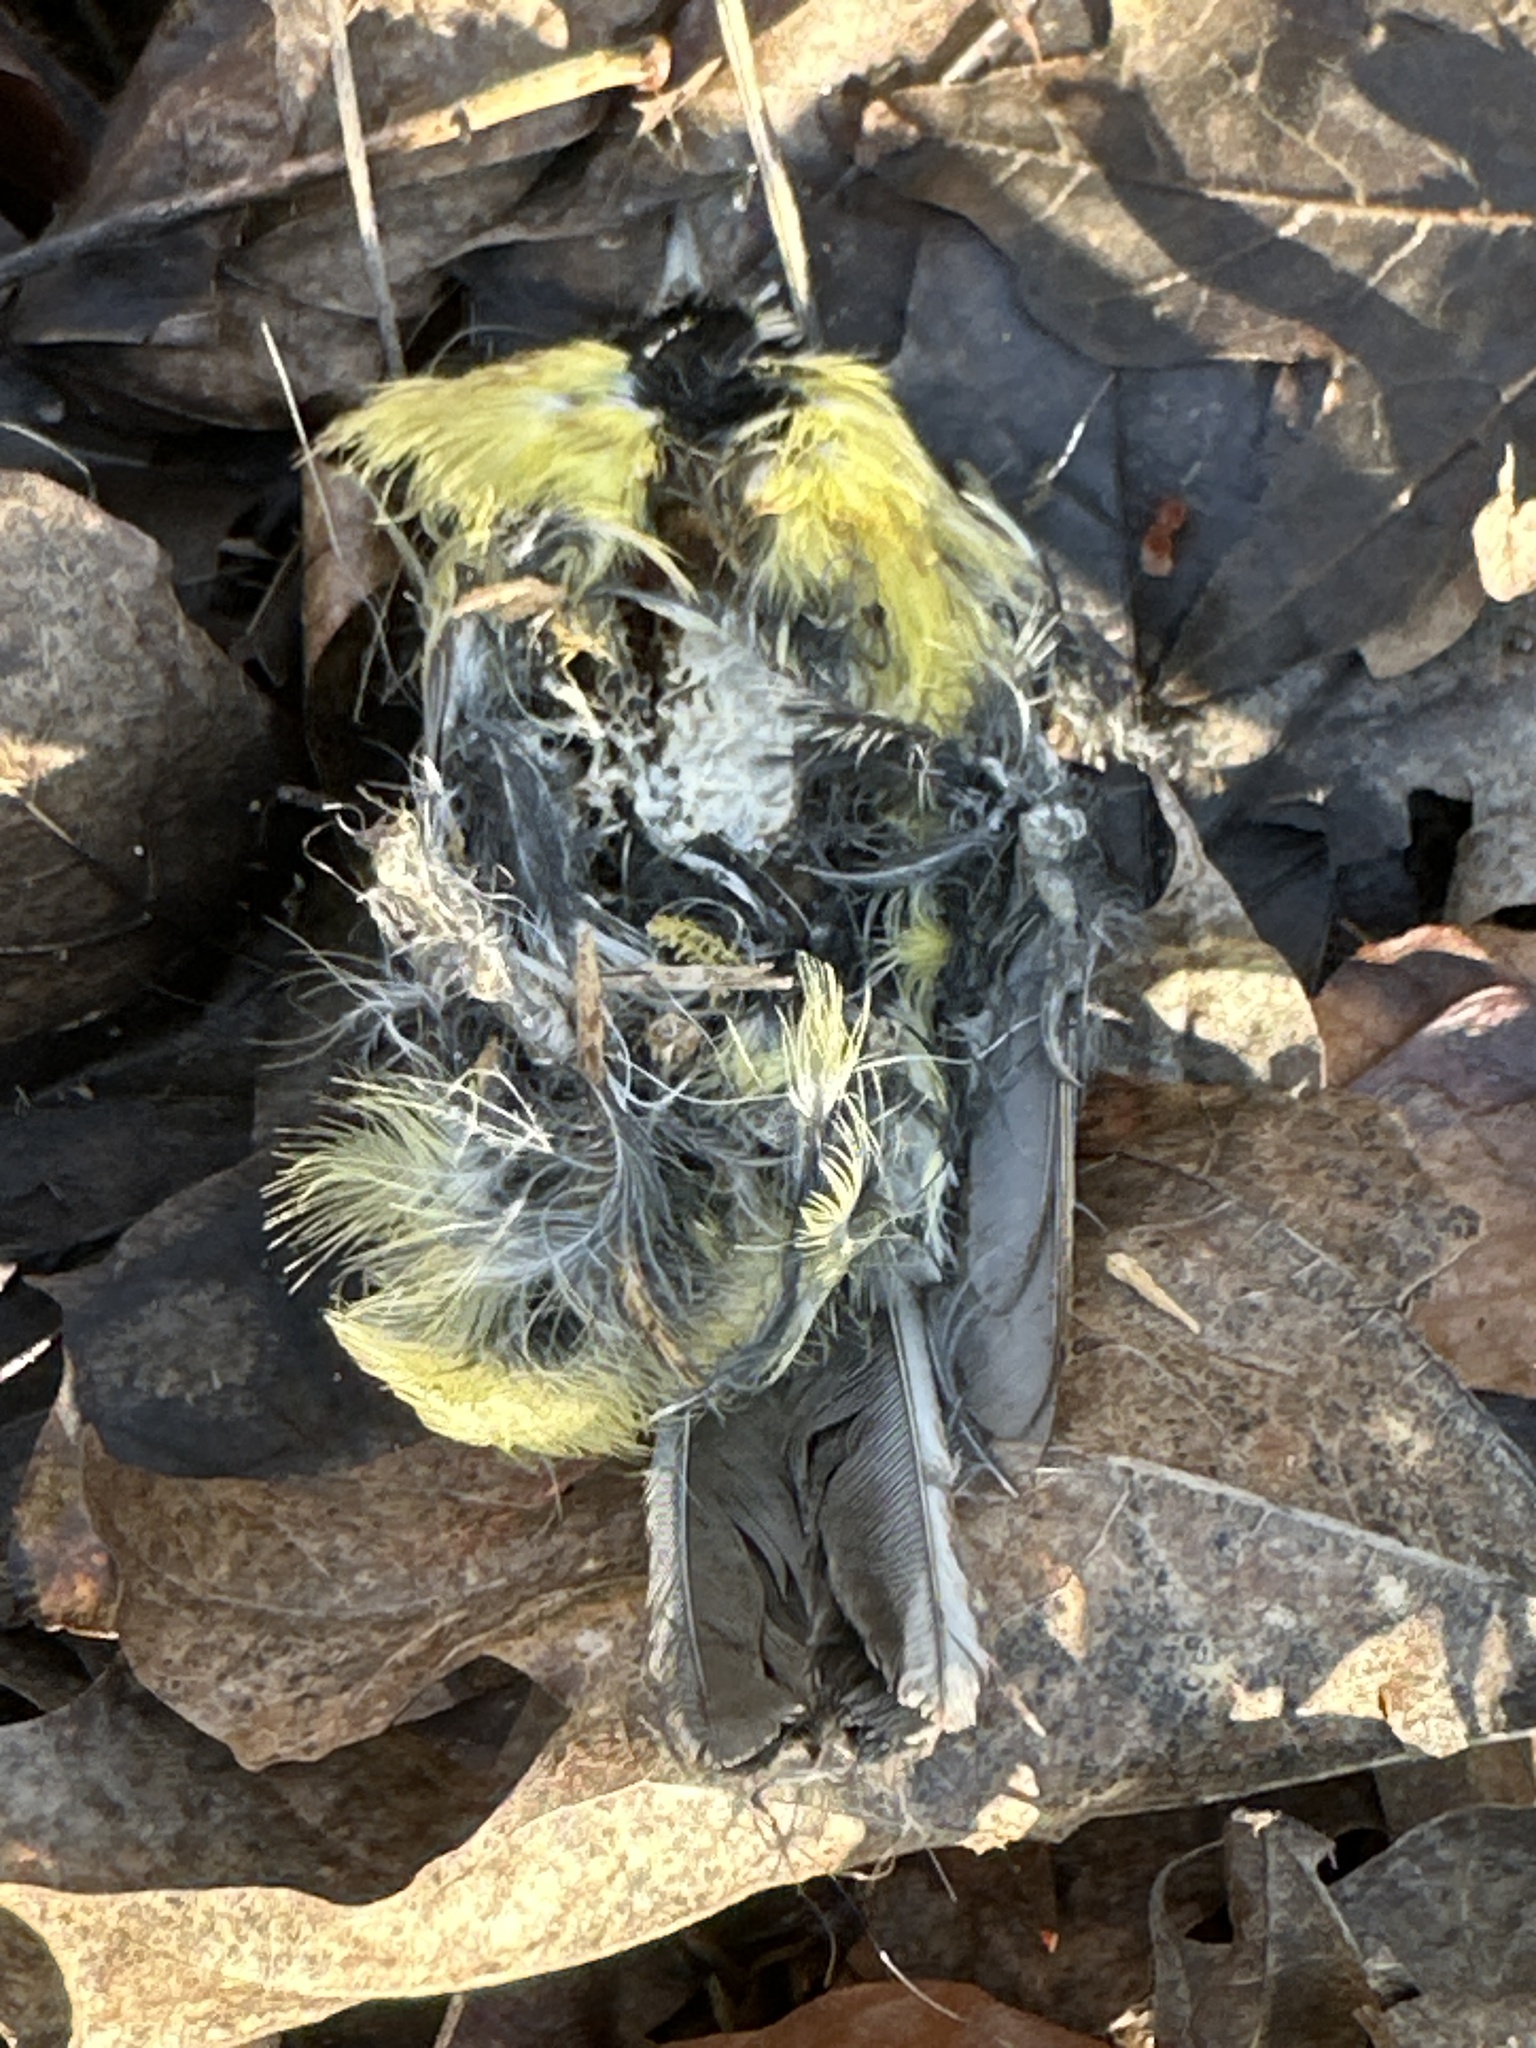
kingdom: Animalia
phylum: Chordata
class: Aves
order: Passeriformes
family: Paridae
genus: Parus
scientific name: Parus major
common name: Great tit
